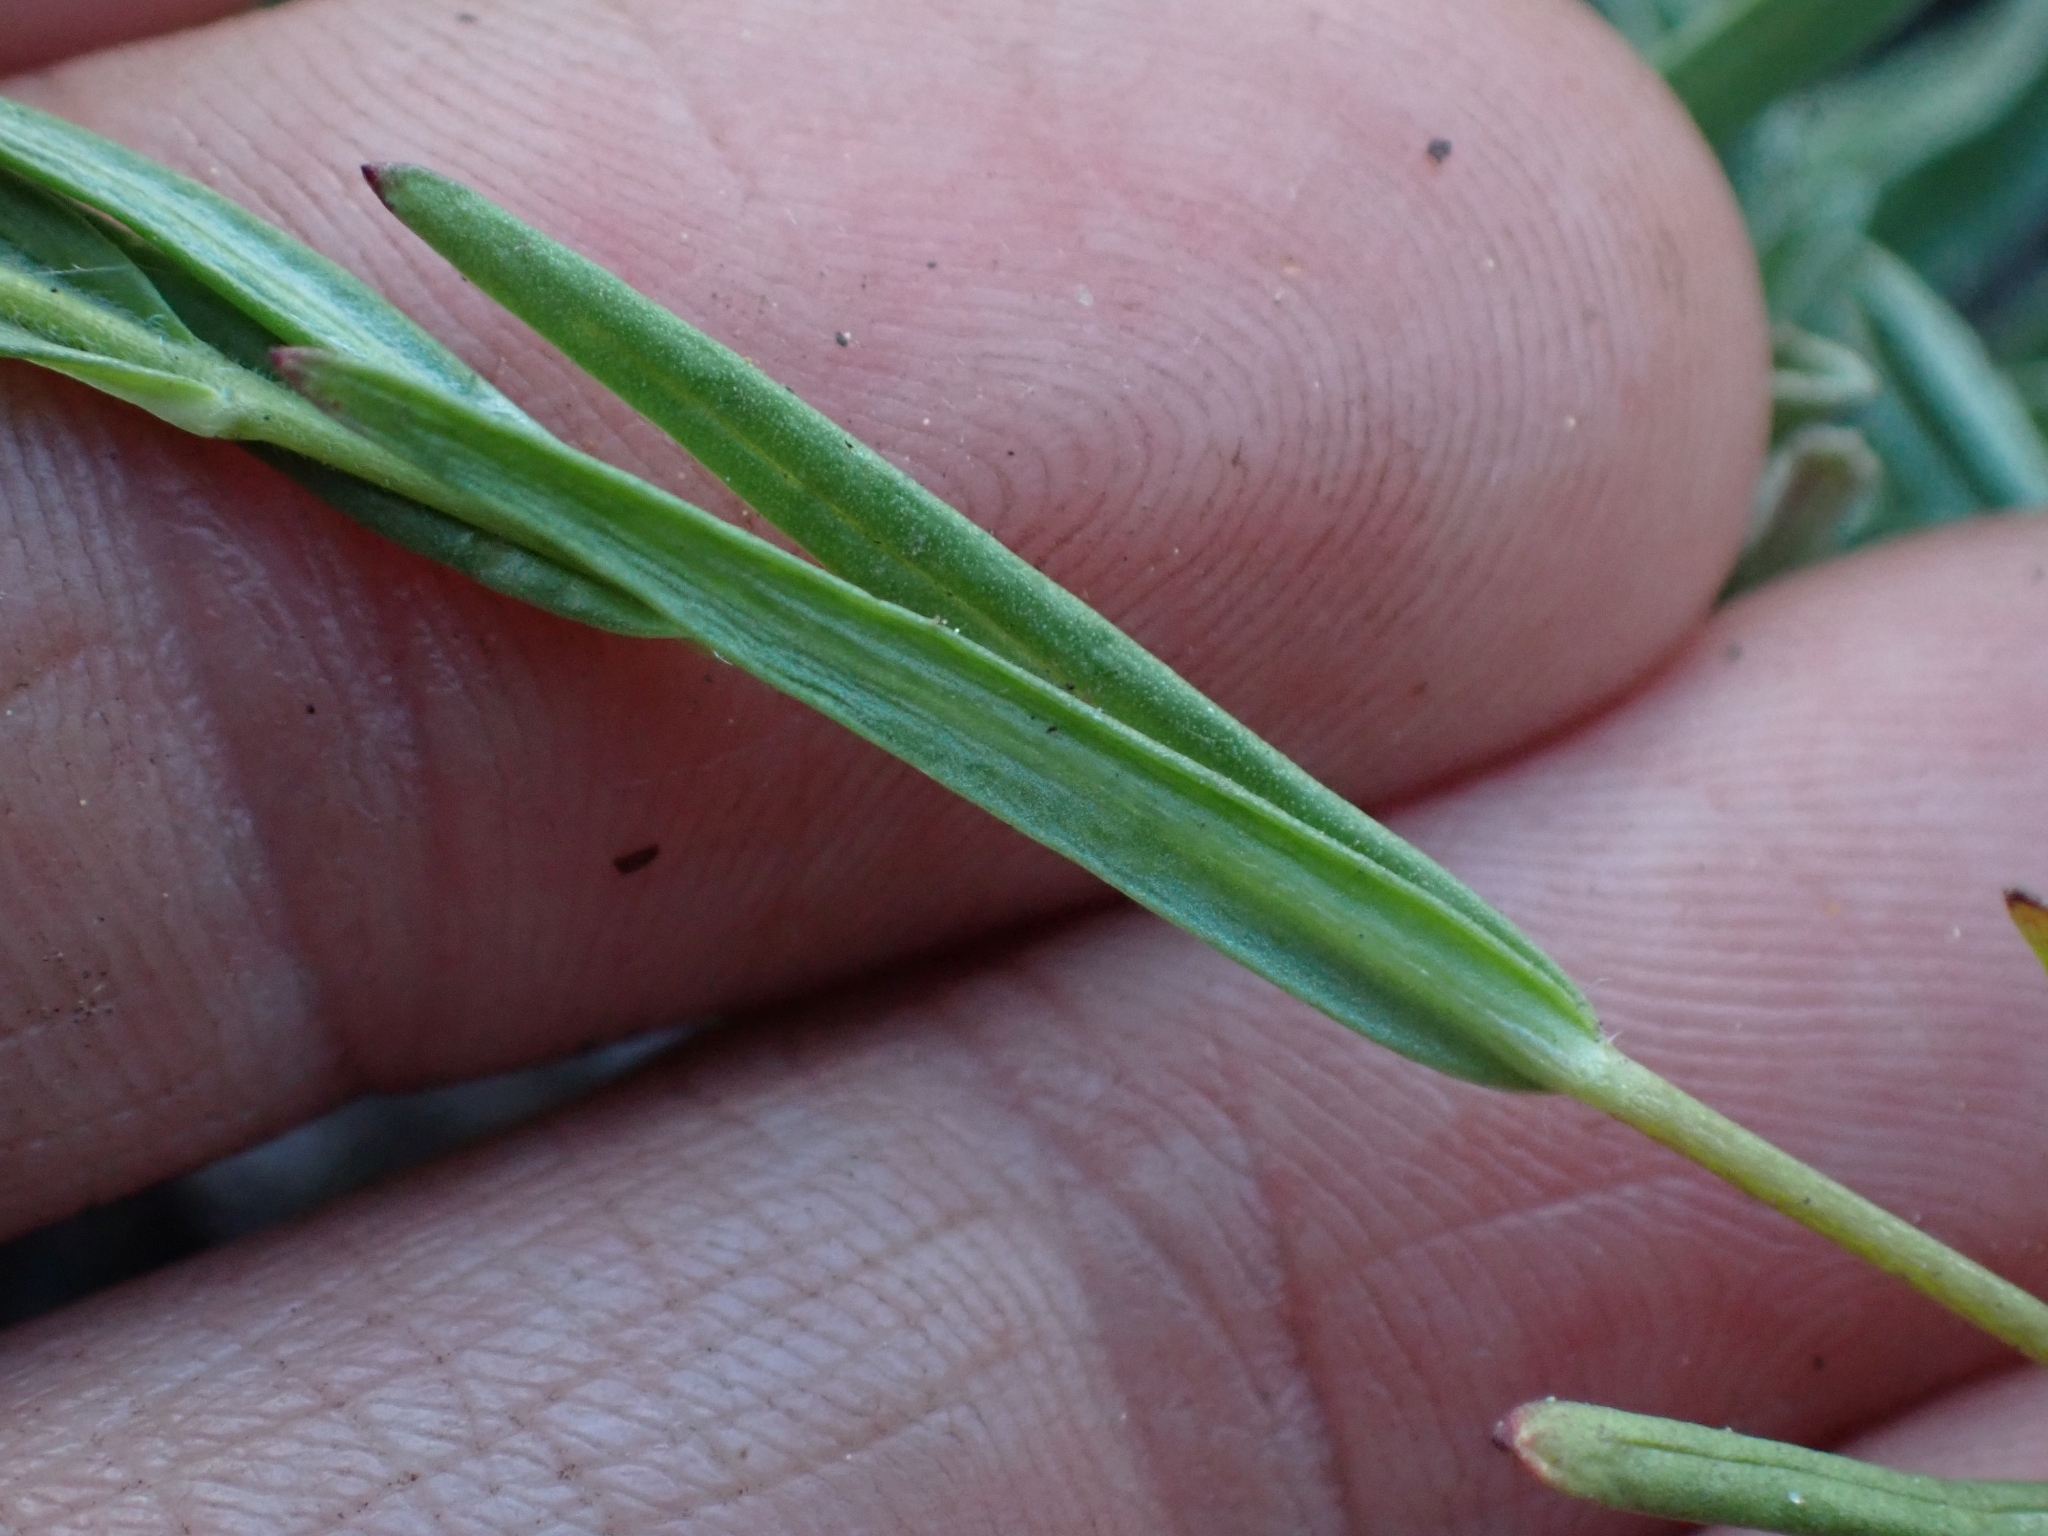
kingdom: Plantae
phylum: Tracheophyta
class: Magnoliopsida
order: Ericales
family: Polemoniaceae
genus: Phlox
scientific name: Phlox gracilis
